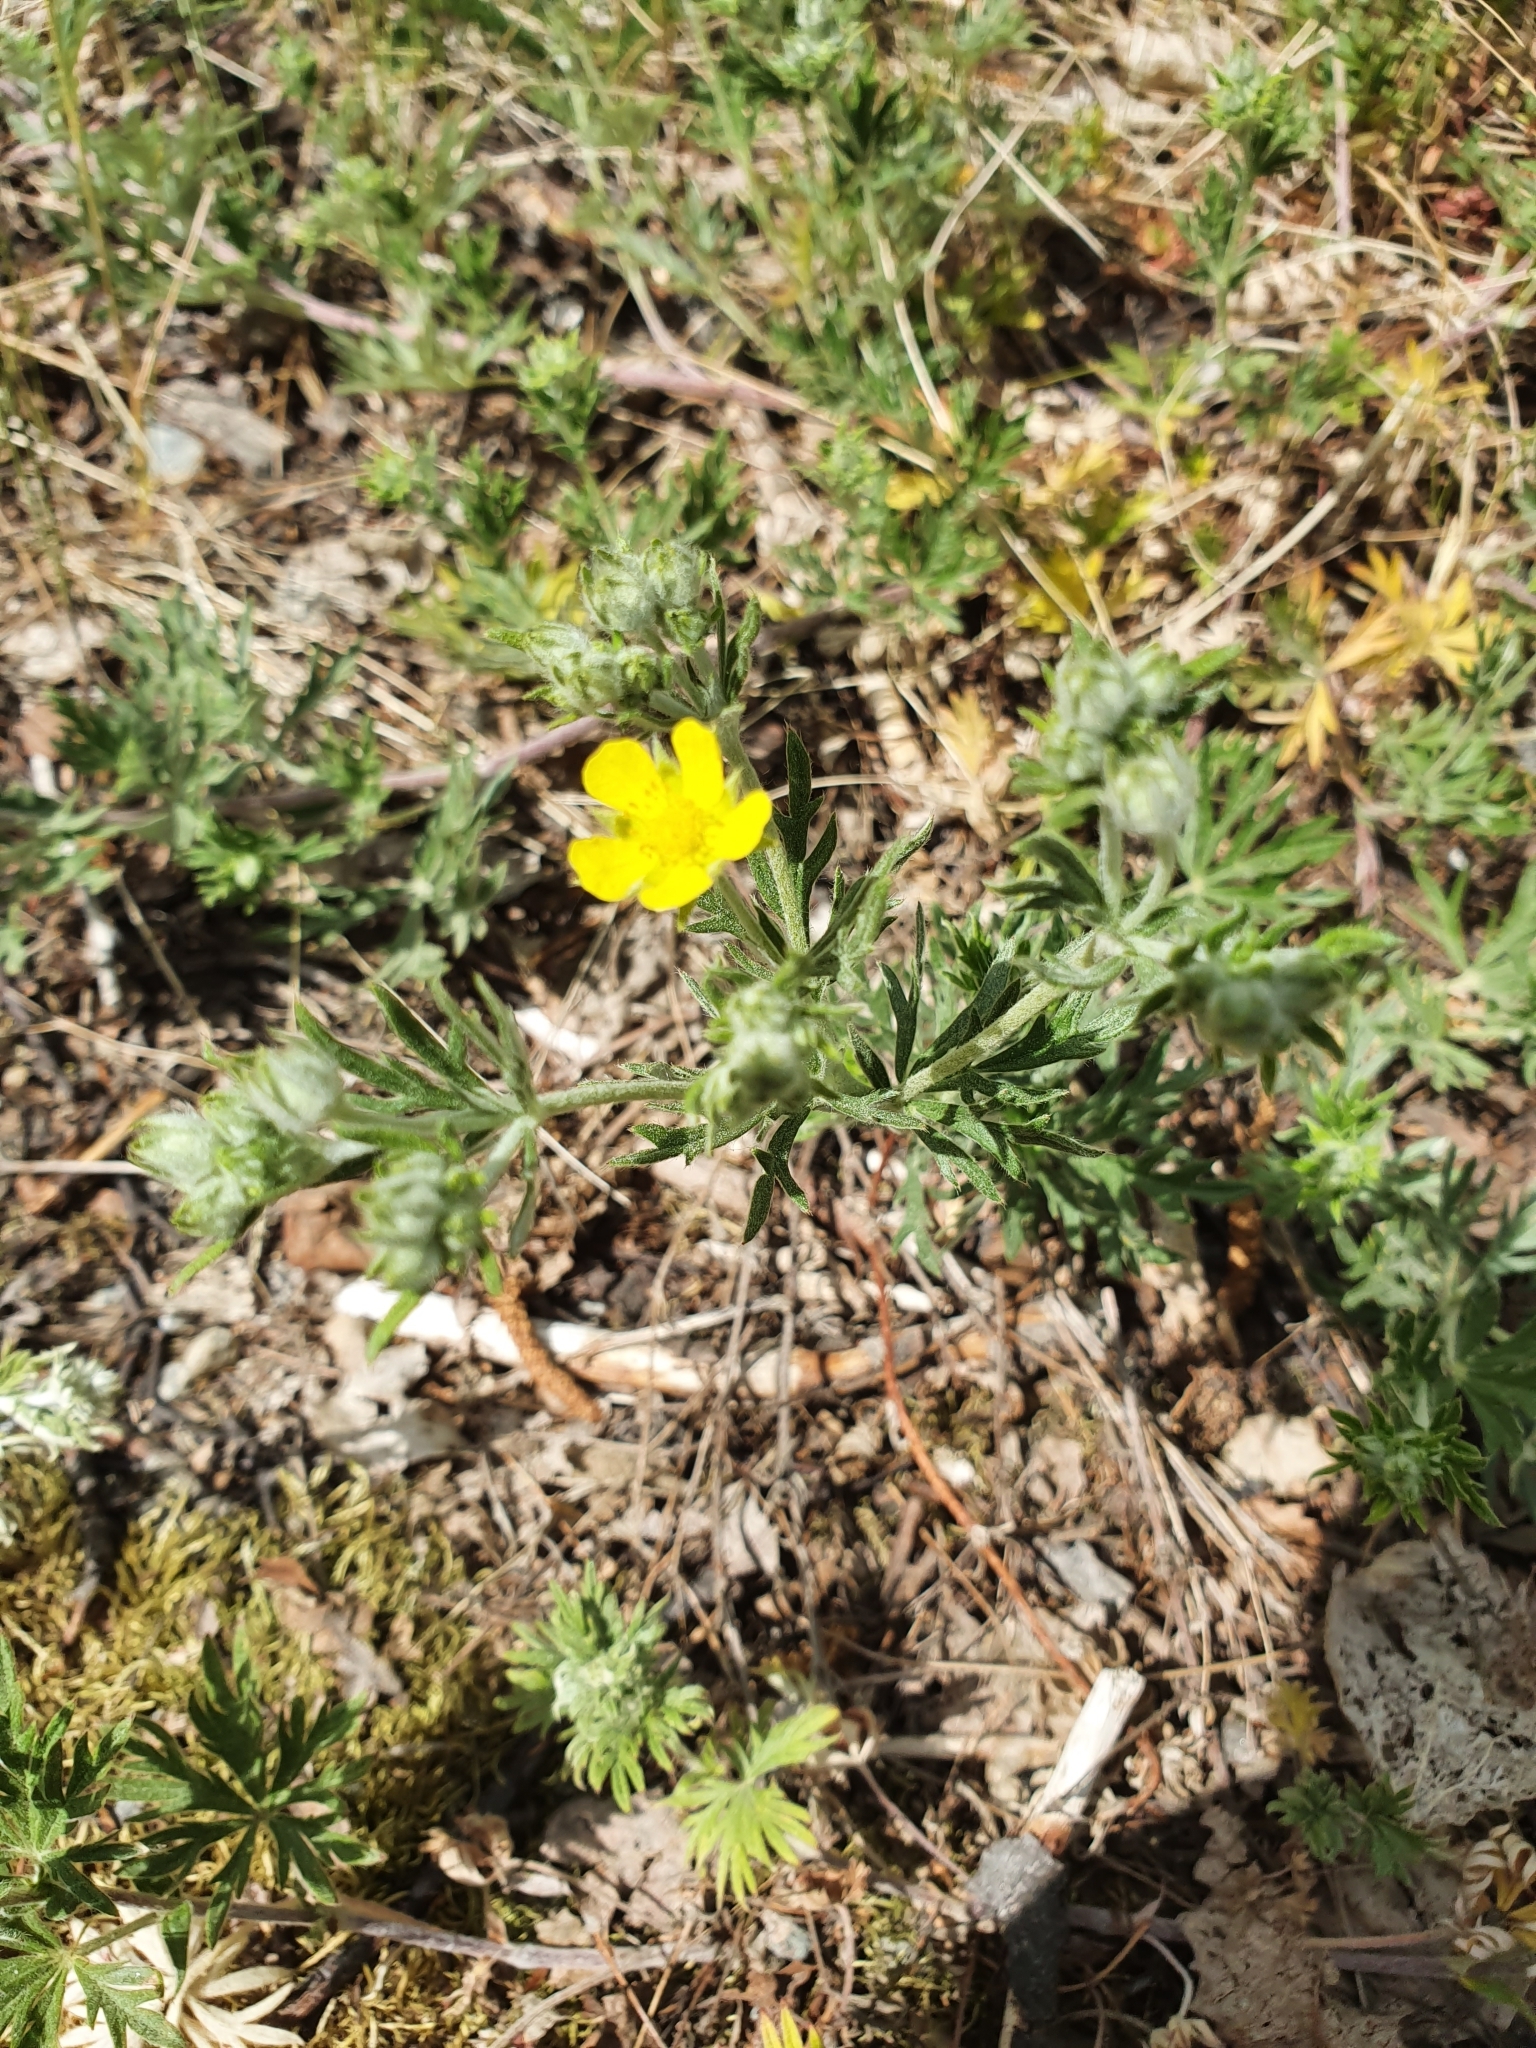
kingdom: Plantae
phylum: Tracheophyta
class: Magnoliopsida
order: Rosales
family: Rosaceae
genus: Potentilla
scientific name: Potentilla argentea
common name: Hoary cinquefoil
